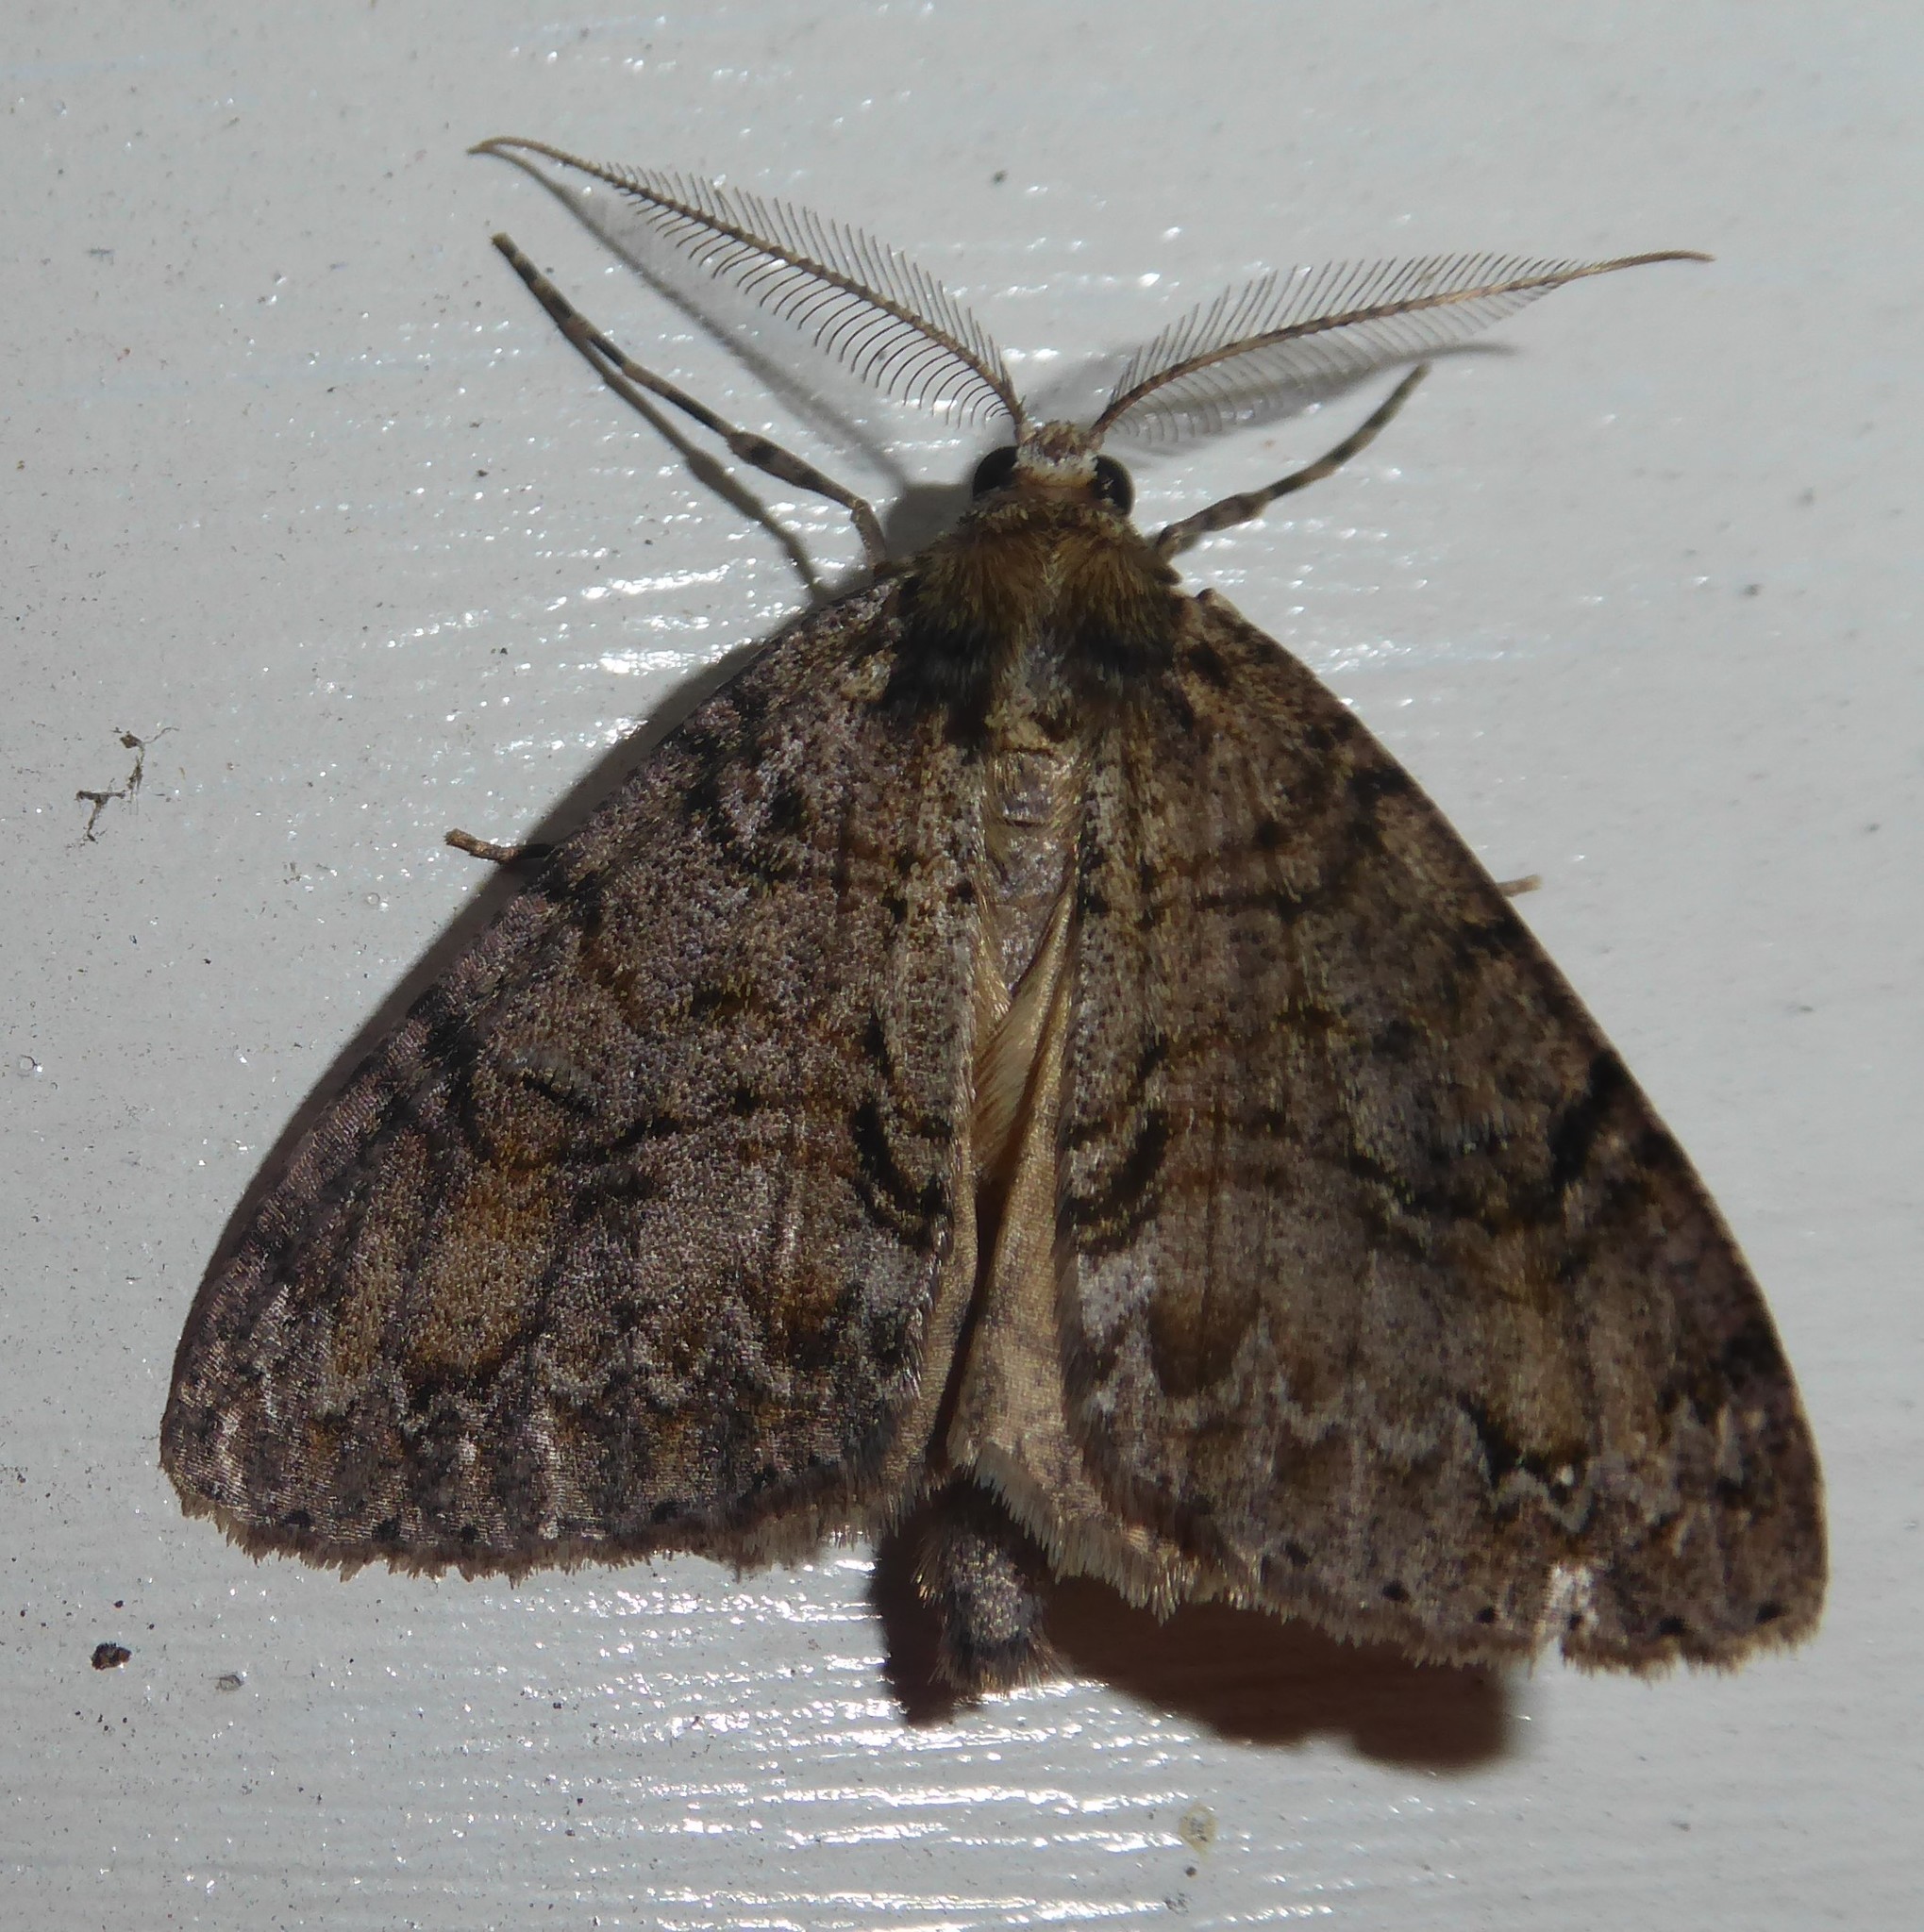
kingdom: Animalia
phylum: Arthropoda
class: Insecta
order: Lepidoptera
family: Geometridae
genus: Pseudocoremia
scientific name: Pseudocoremia suavis
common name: Common forest looper
